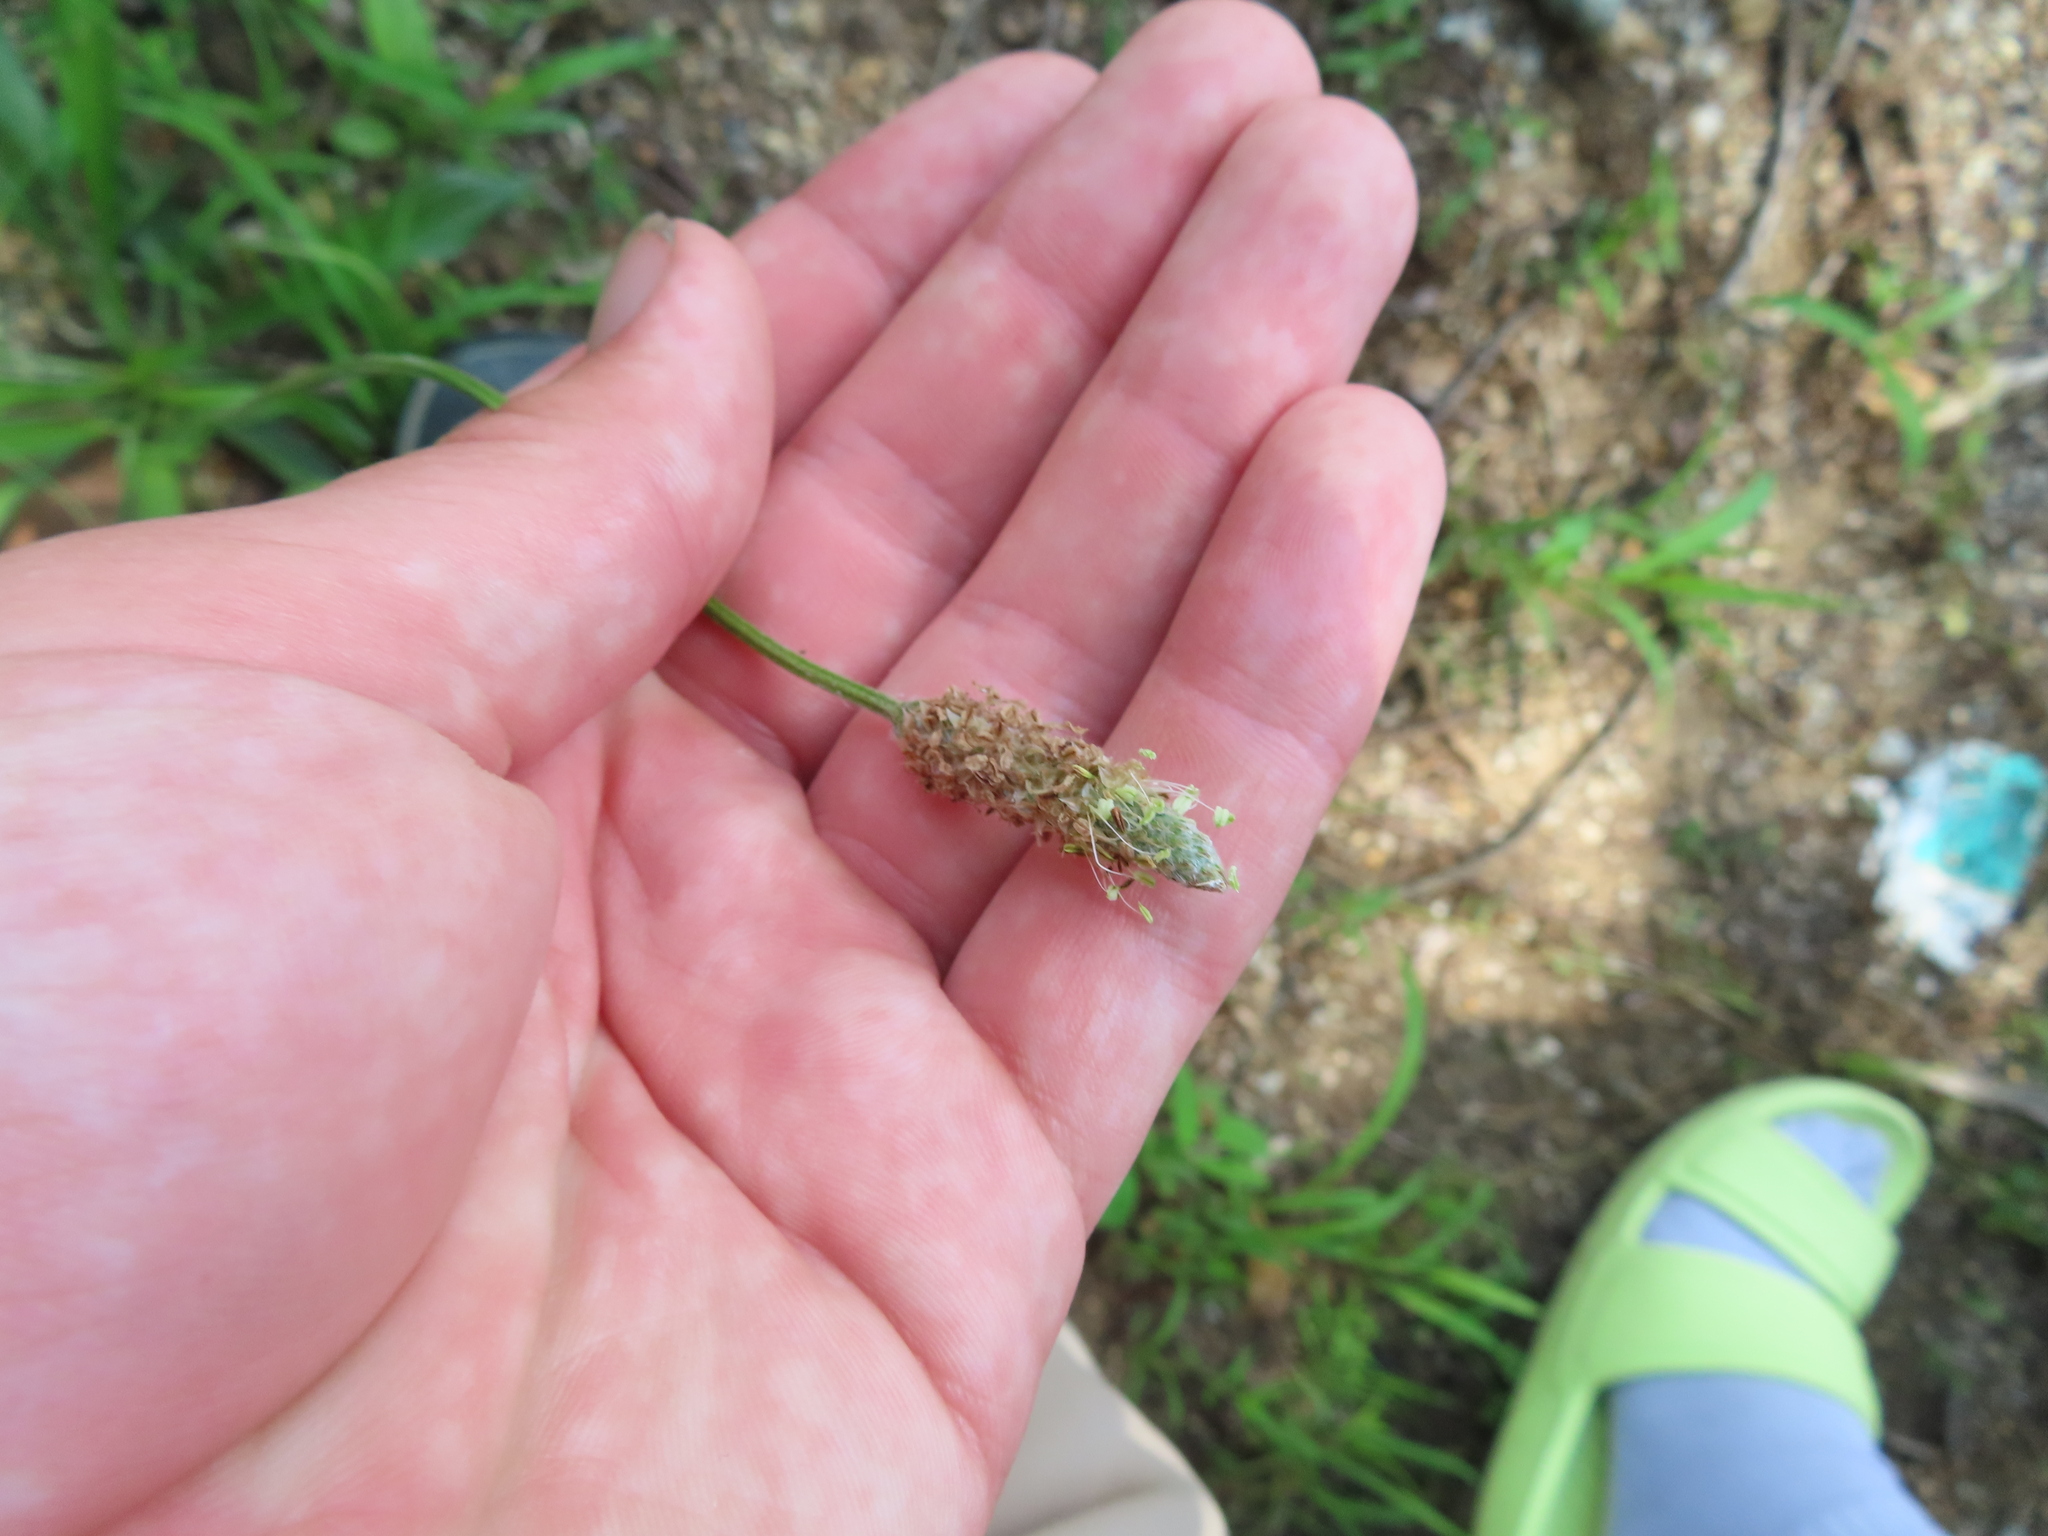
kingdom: Plantae
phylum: Tracheophyta
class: Magnoliopsida
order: Lamiales
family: Plantaginaceae
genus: Plantago
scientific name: Plantago lanceolata
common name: Ribwort plantain
